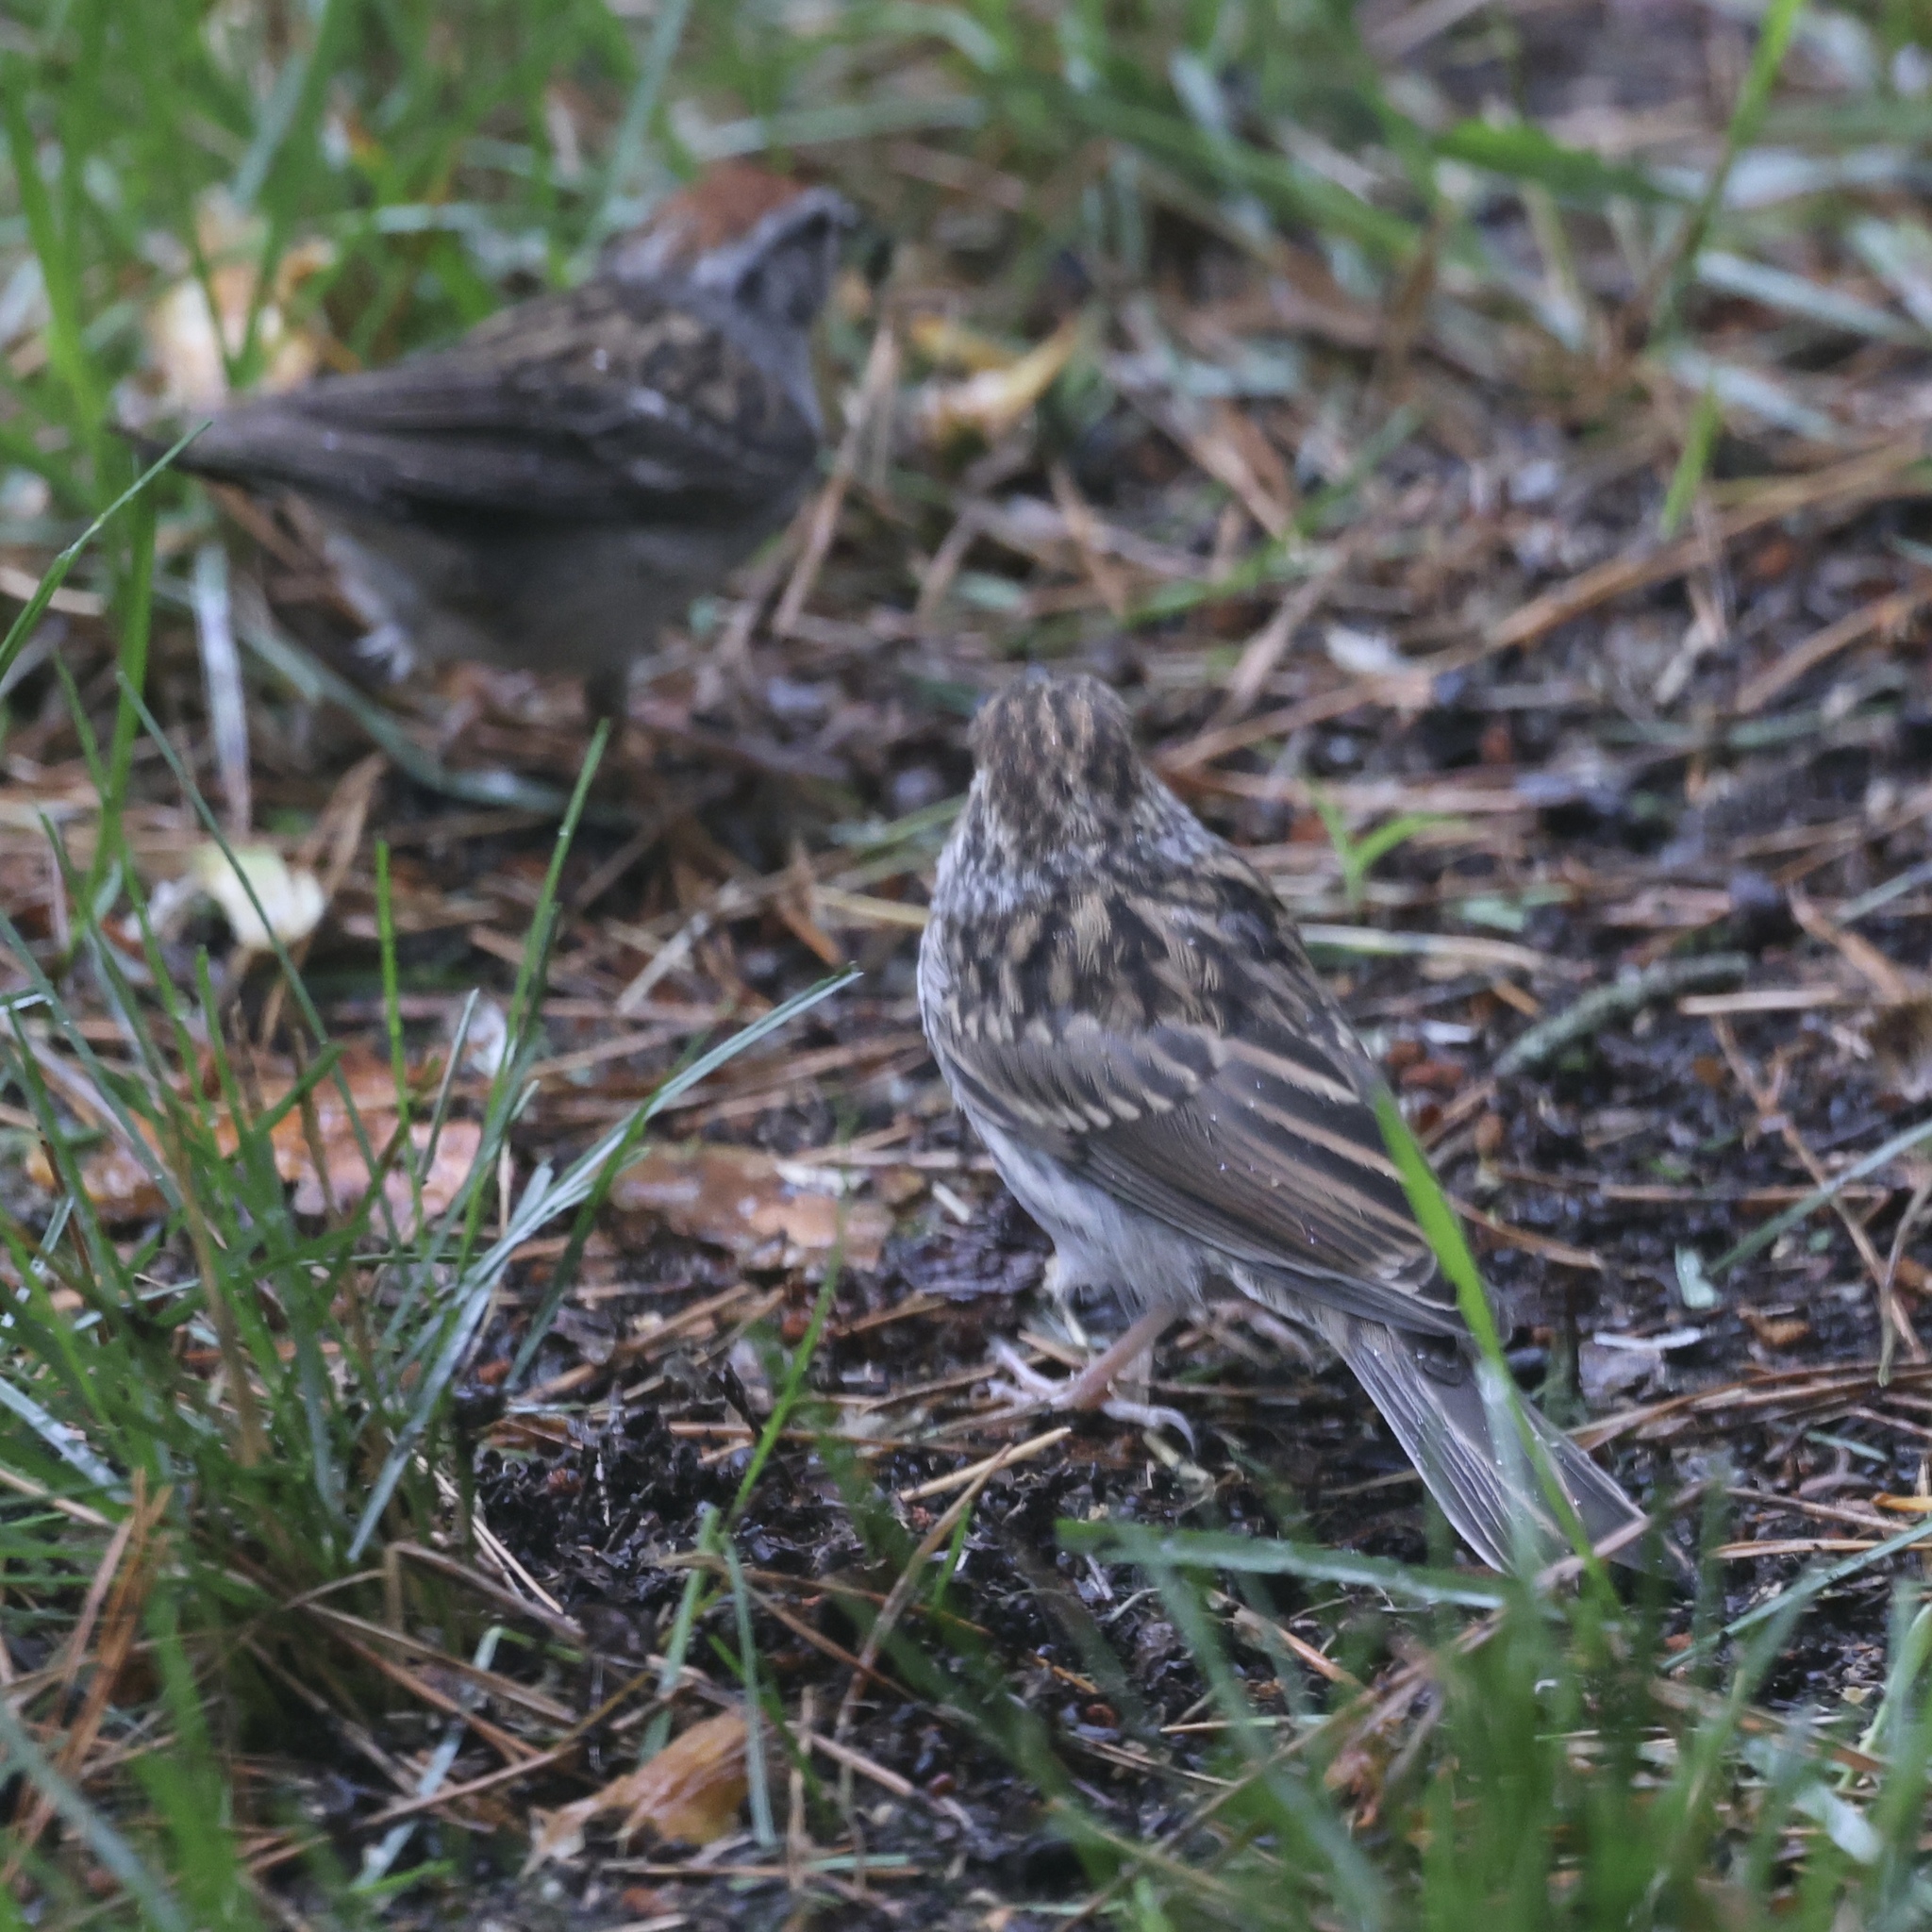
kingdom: Animalia
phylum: Chordata
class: Aves
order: Passeriformes
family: Passerellidae
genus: Spizella
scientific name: Spizella passerina
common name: Chipping sparrow
